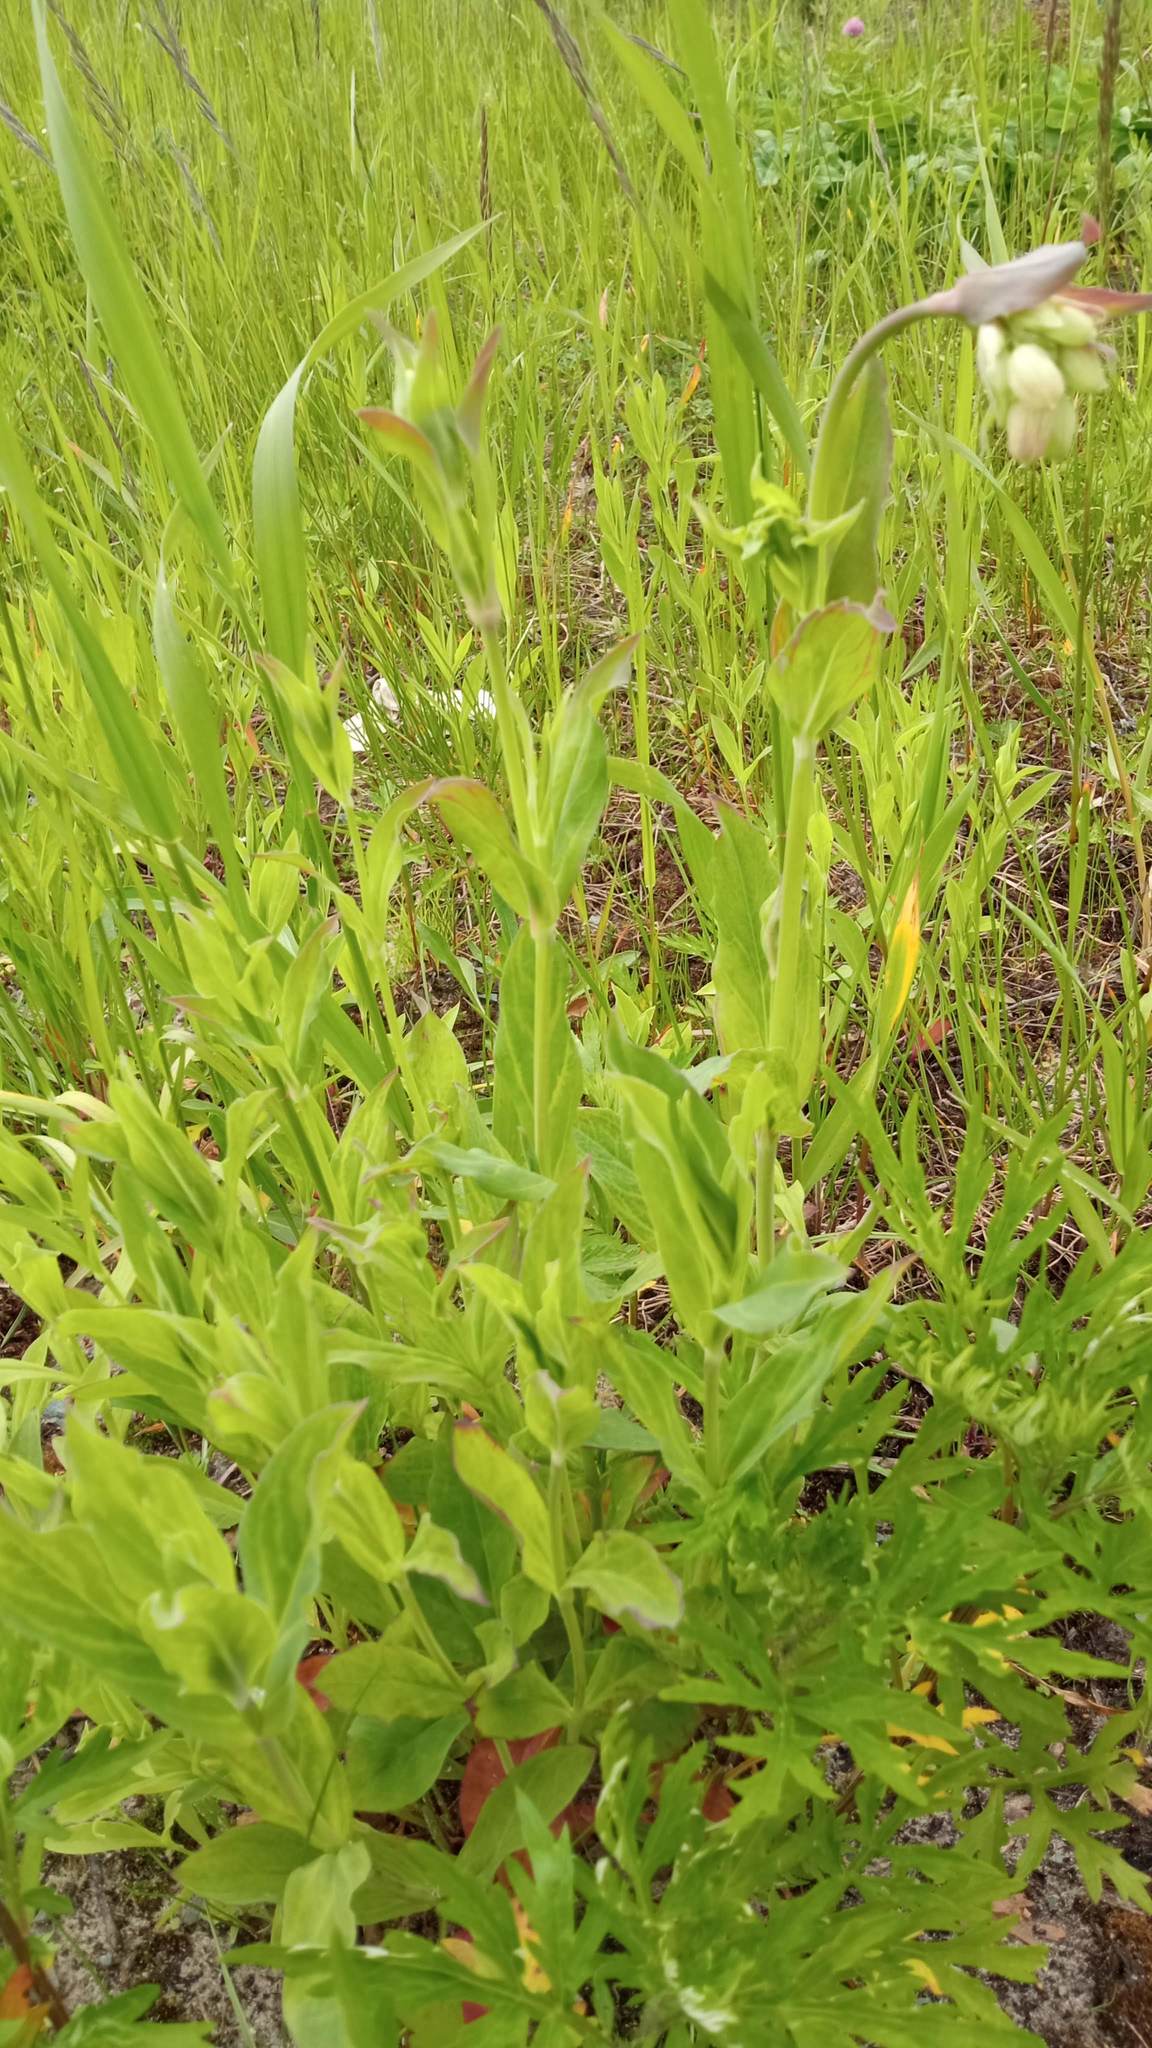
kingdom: Plantae
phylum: Tracheophyta
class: Magnoliopsida
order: Caryophyllales
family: Caryophyllaceae
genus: Silene
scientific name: Silene vulgaris
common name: Bladder campion
